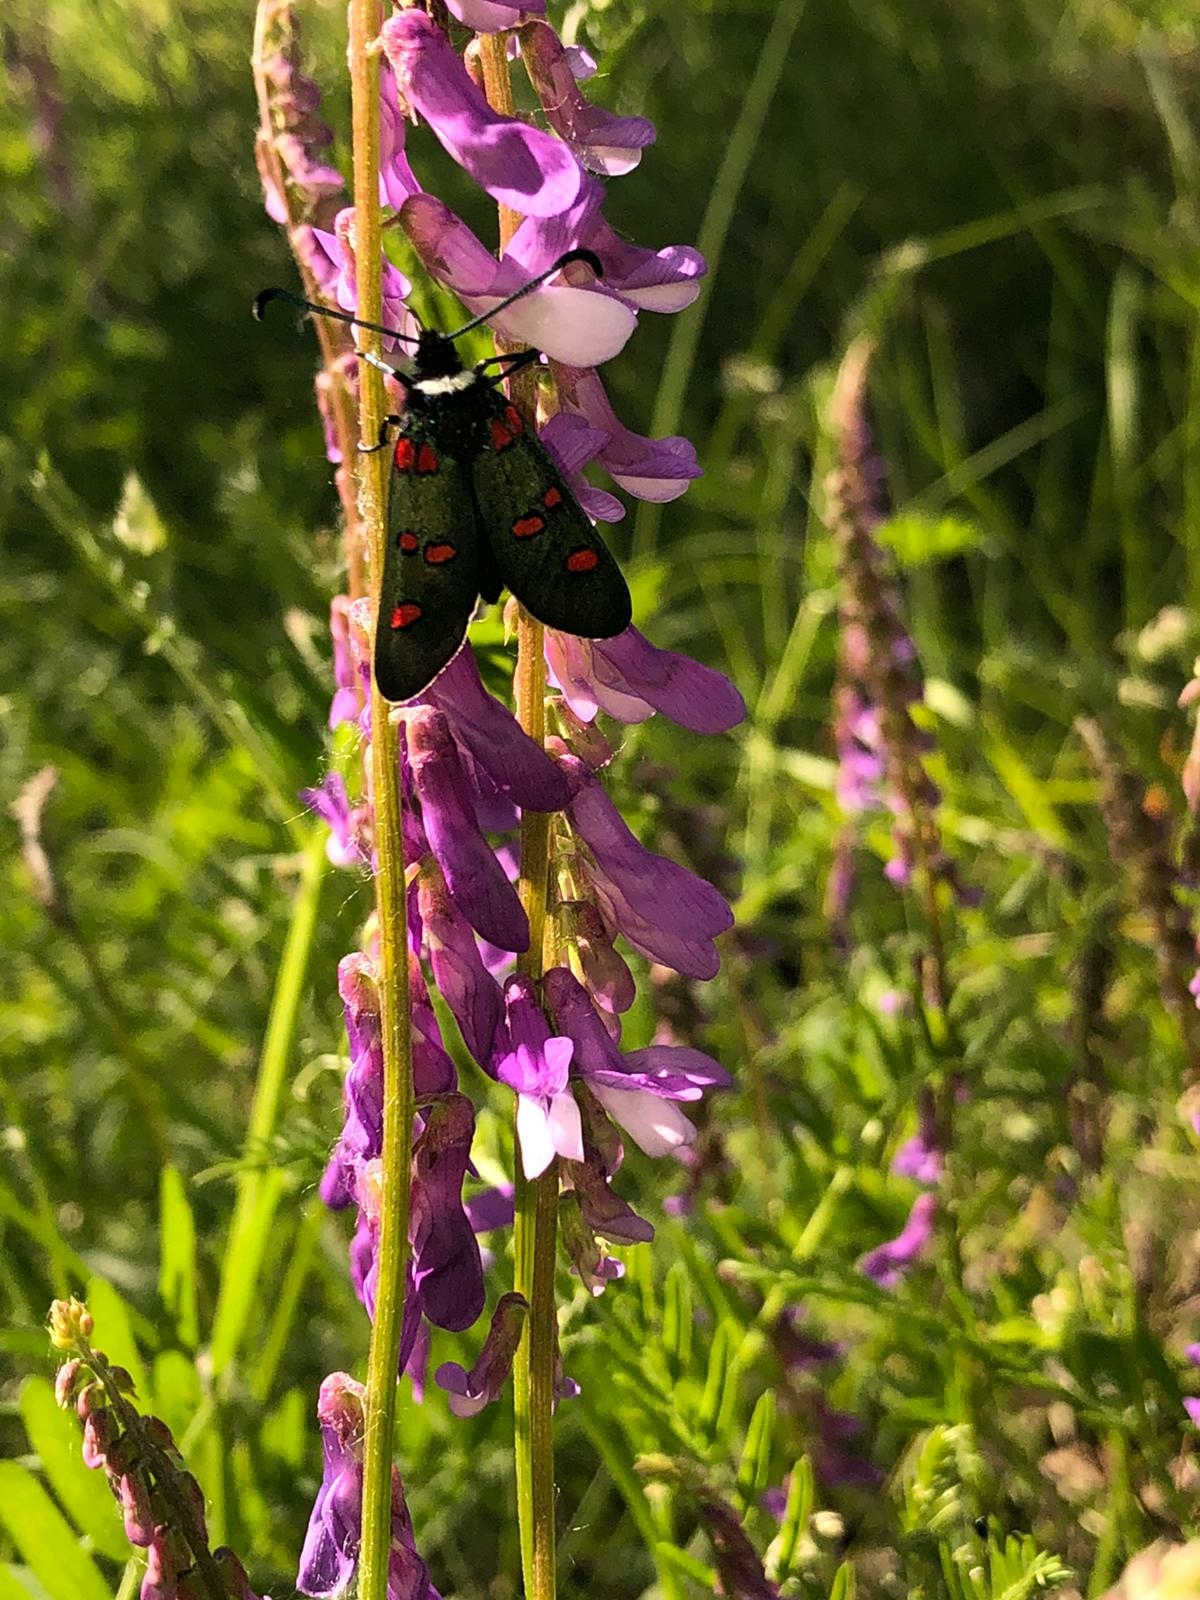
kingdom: Animalia
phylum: Arthropoda
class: Insecta
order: Lepidoptera
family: Zygaenidae
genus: Zygaena
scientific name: Zygaena lavandulae
